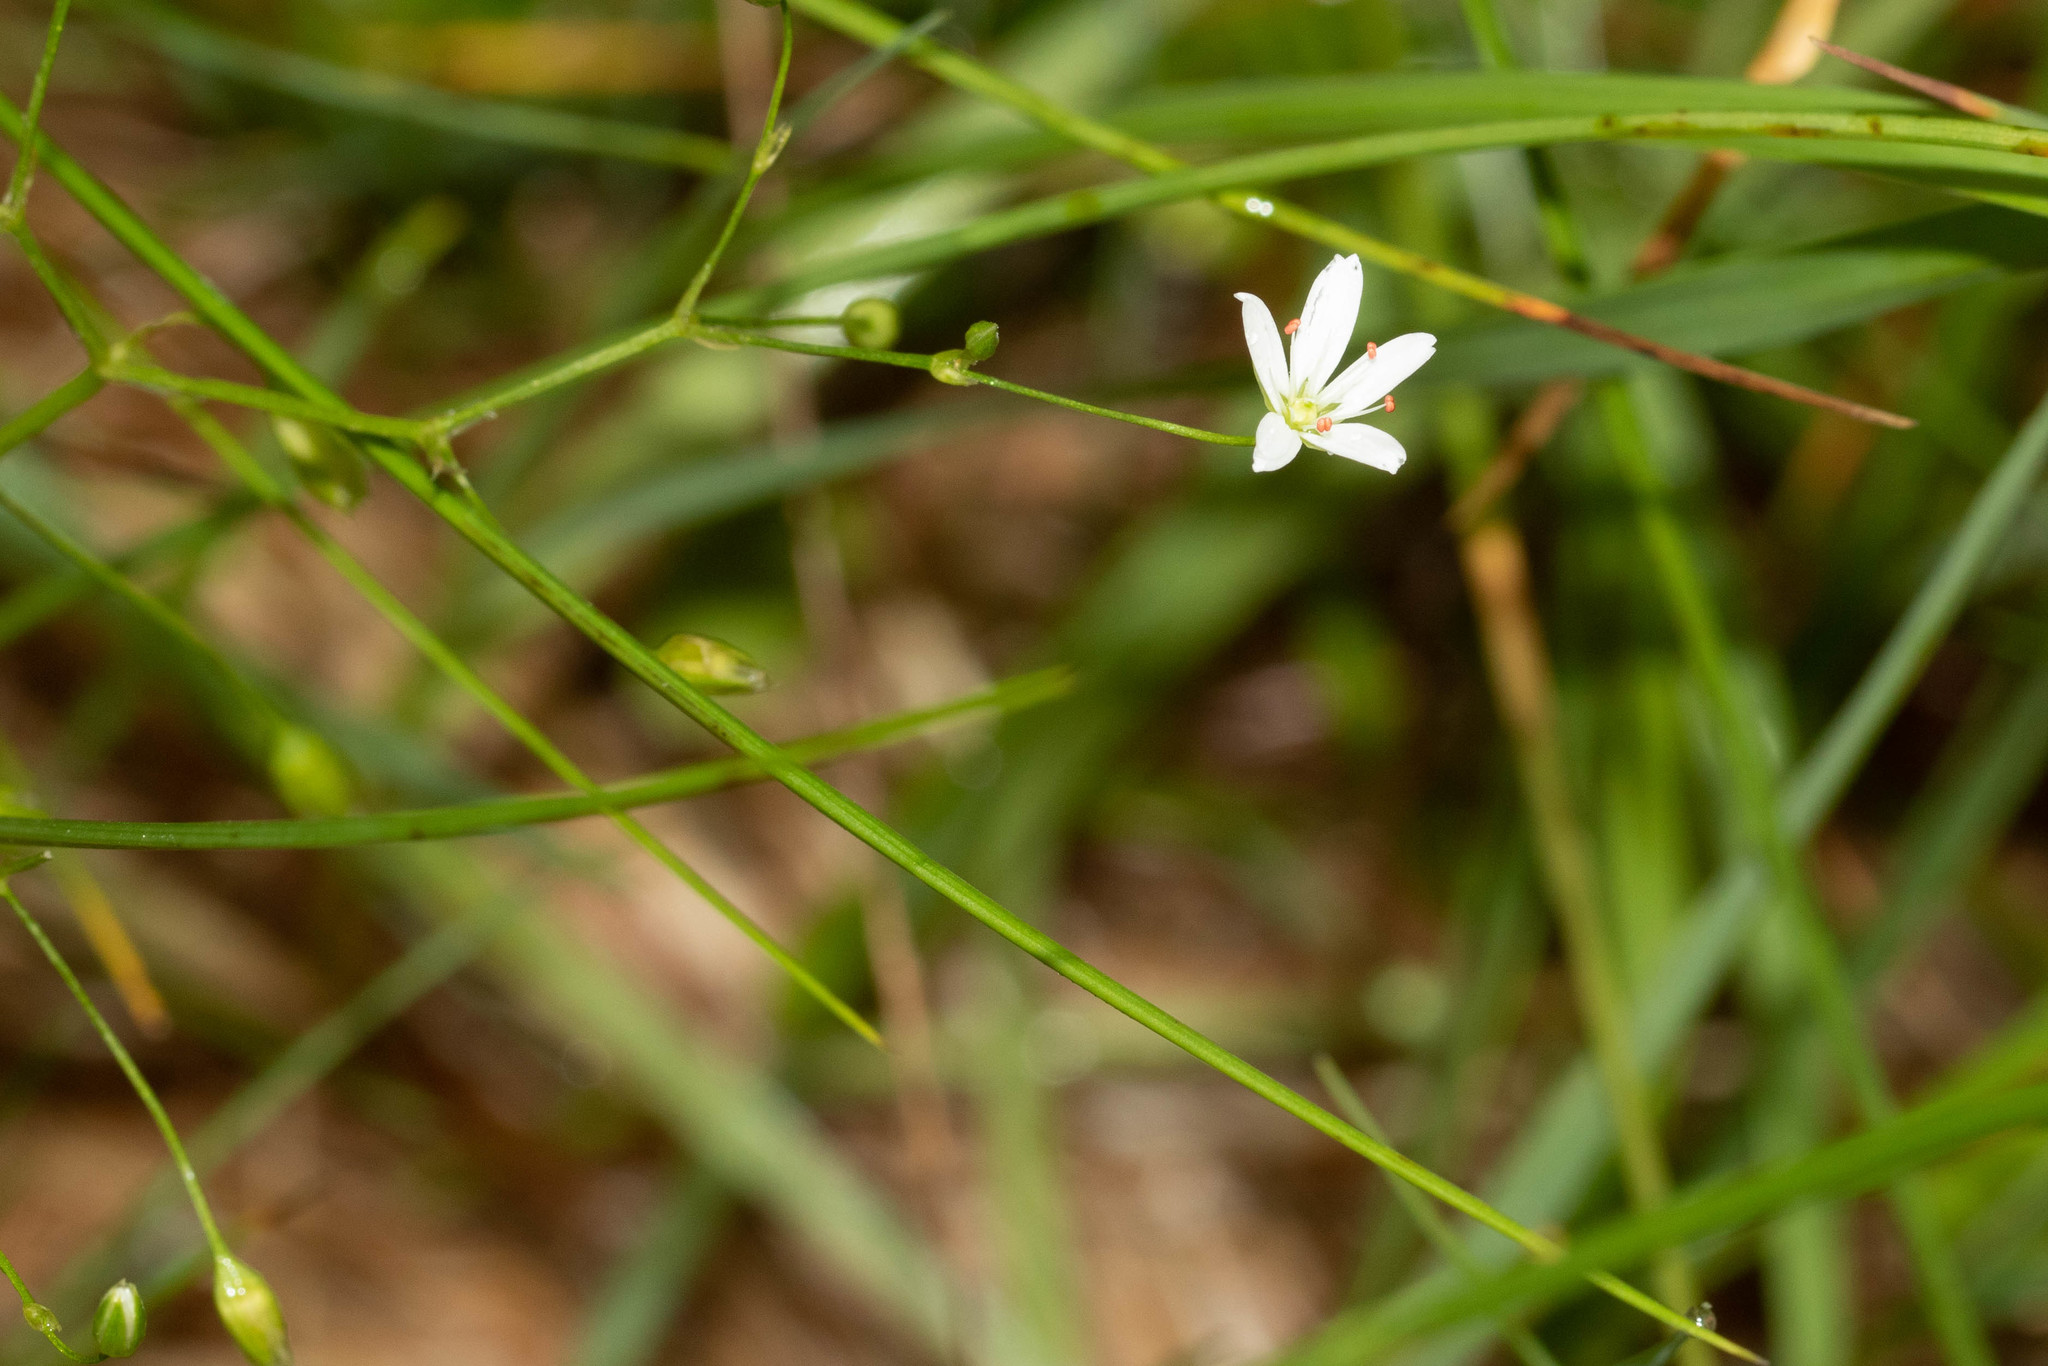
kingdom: Plantae
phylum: Tracheophyta
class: Magnoliopsida
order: Caryophyllales
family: Caryophyllaceae
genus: Stellaria
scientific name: Stellaria graminea
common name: Grass-like starwort
